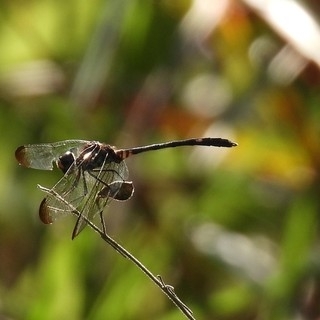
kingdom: Animalia
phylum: Arthropoda
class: Insecta
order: Odonata
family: Libellulidae
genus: Dythemis
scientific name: Dythemis velox
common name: Swift setwing
